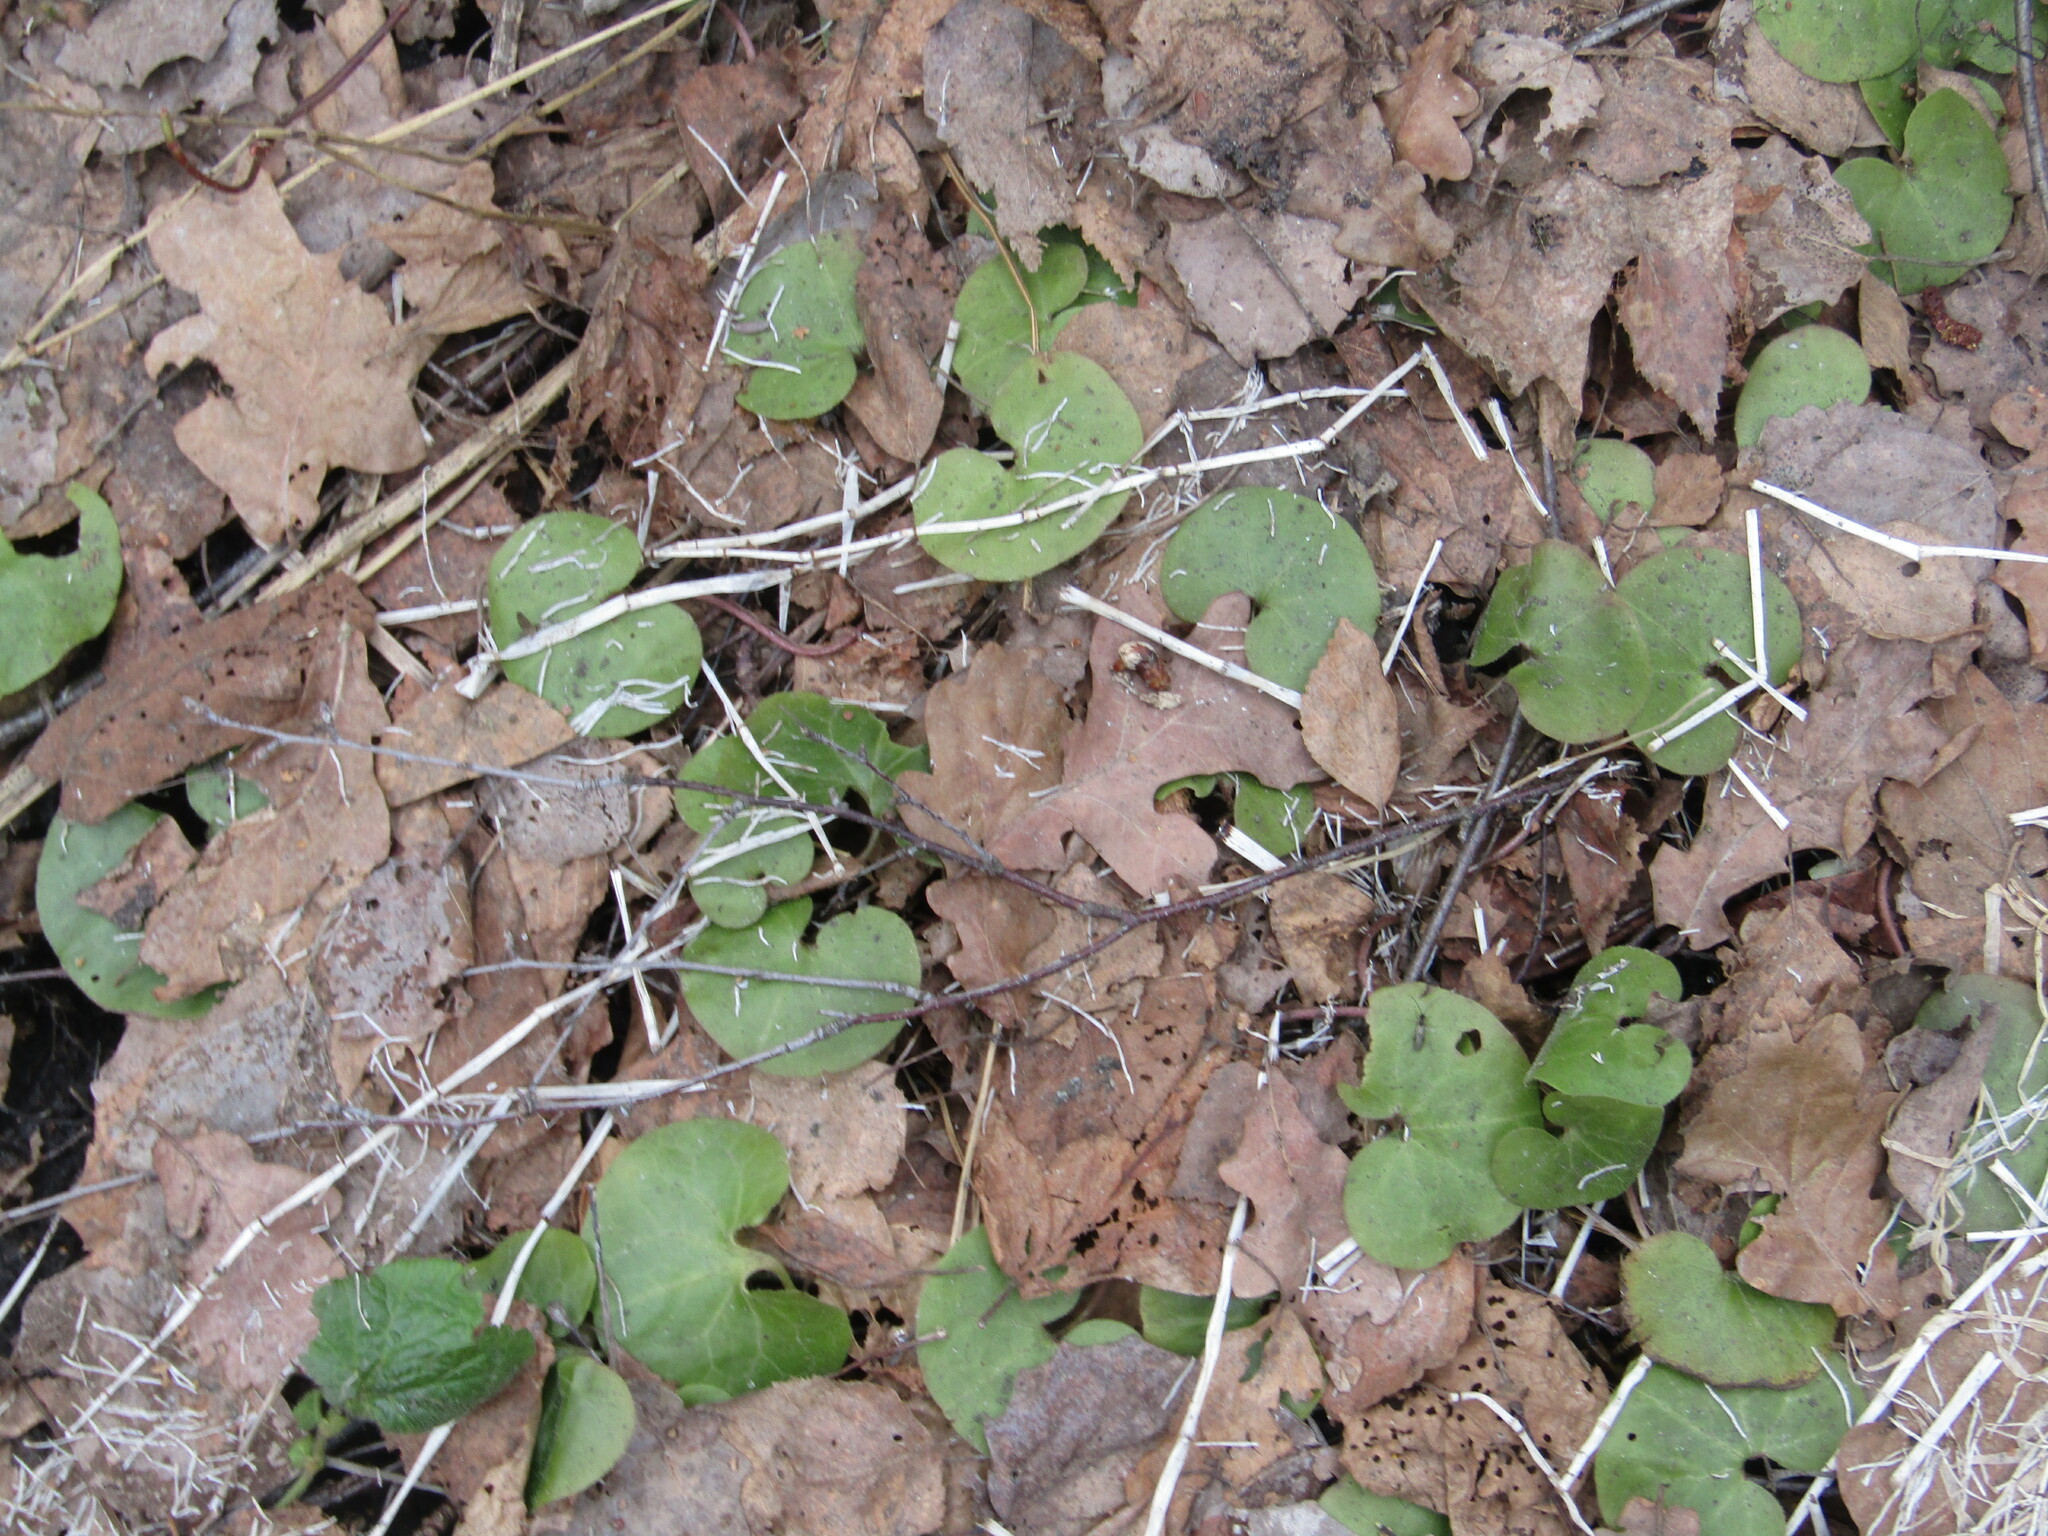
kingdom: Plantae
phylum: Tracheophyta
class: Magnoliopsida
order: Piperales
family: Aristolochiaceae
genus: Asarum
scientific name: Asarum europaeum
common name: Asarabacca
